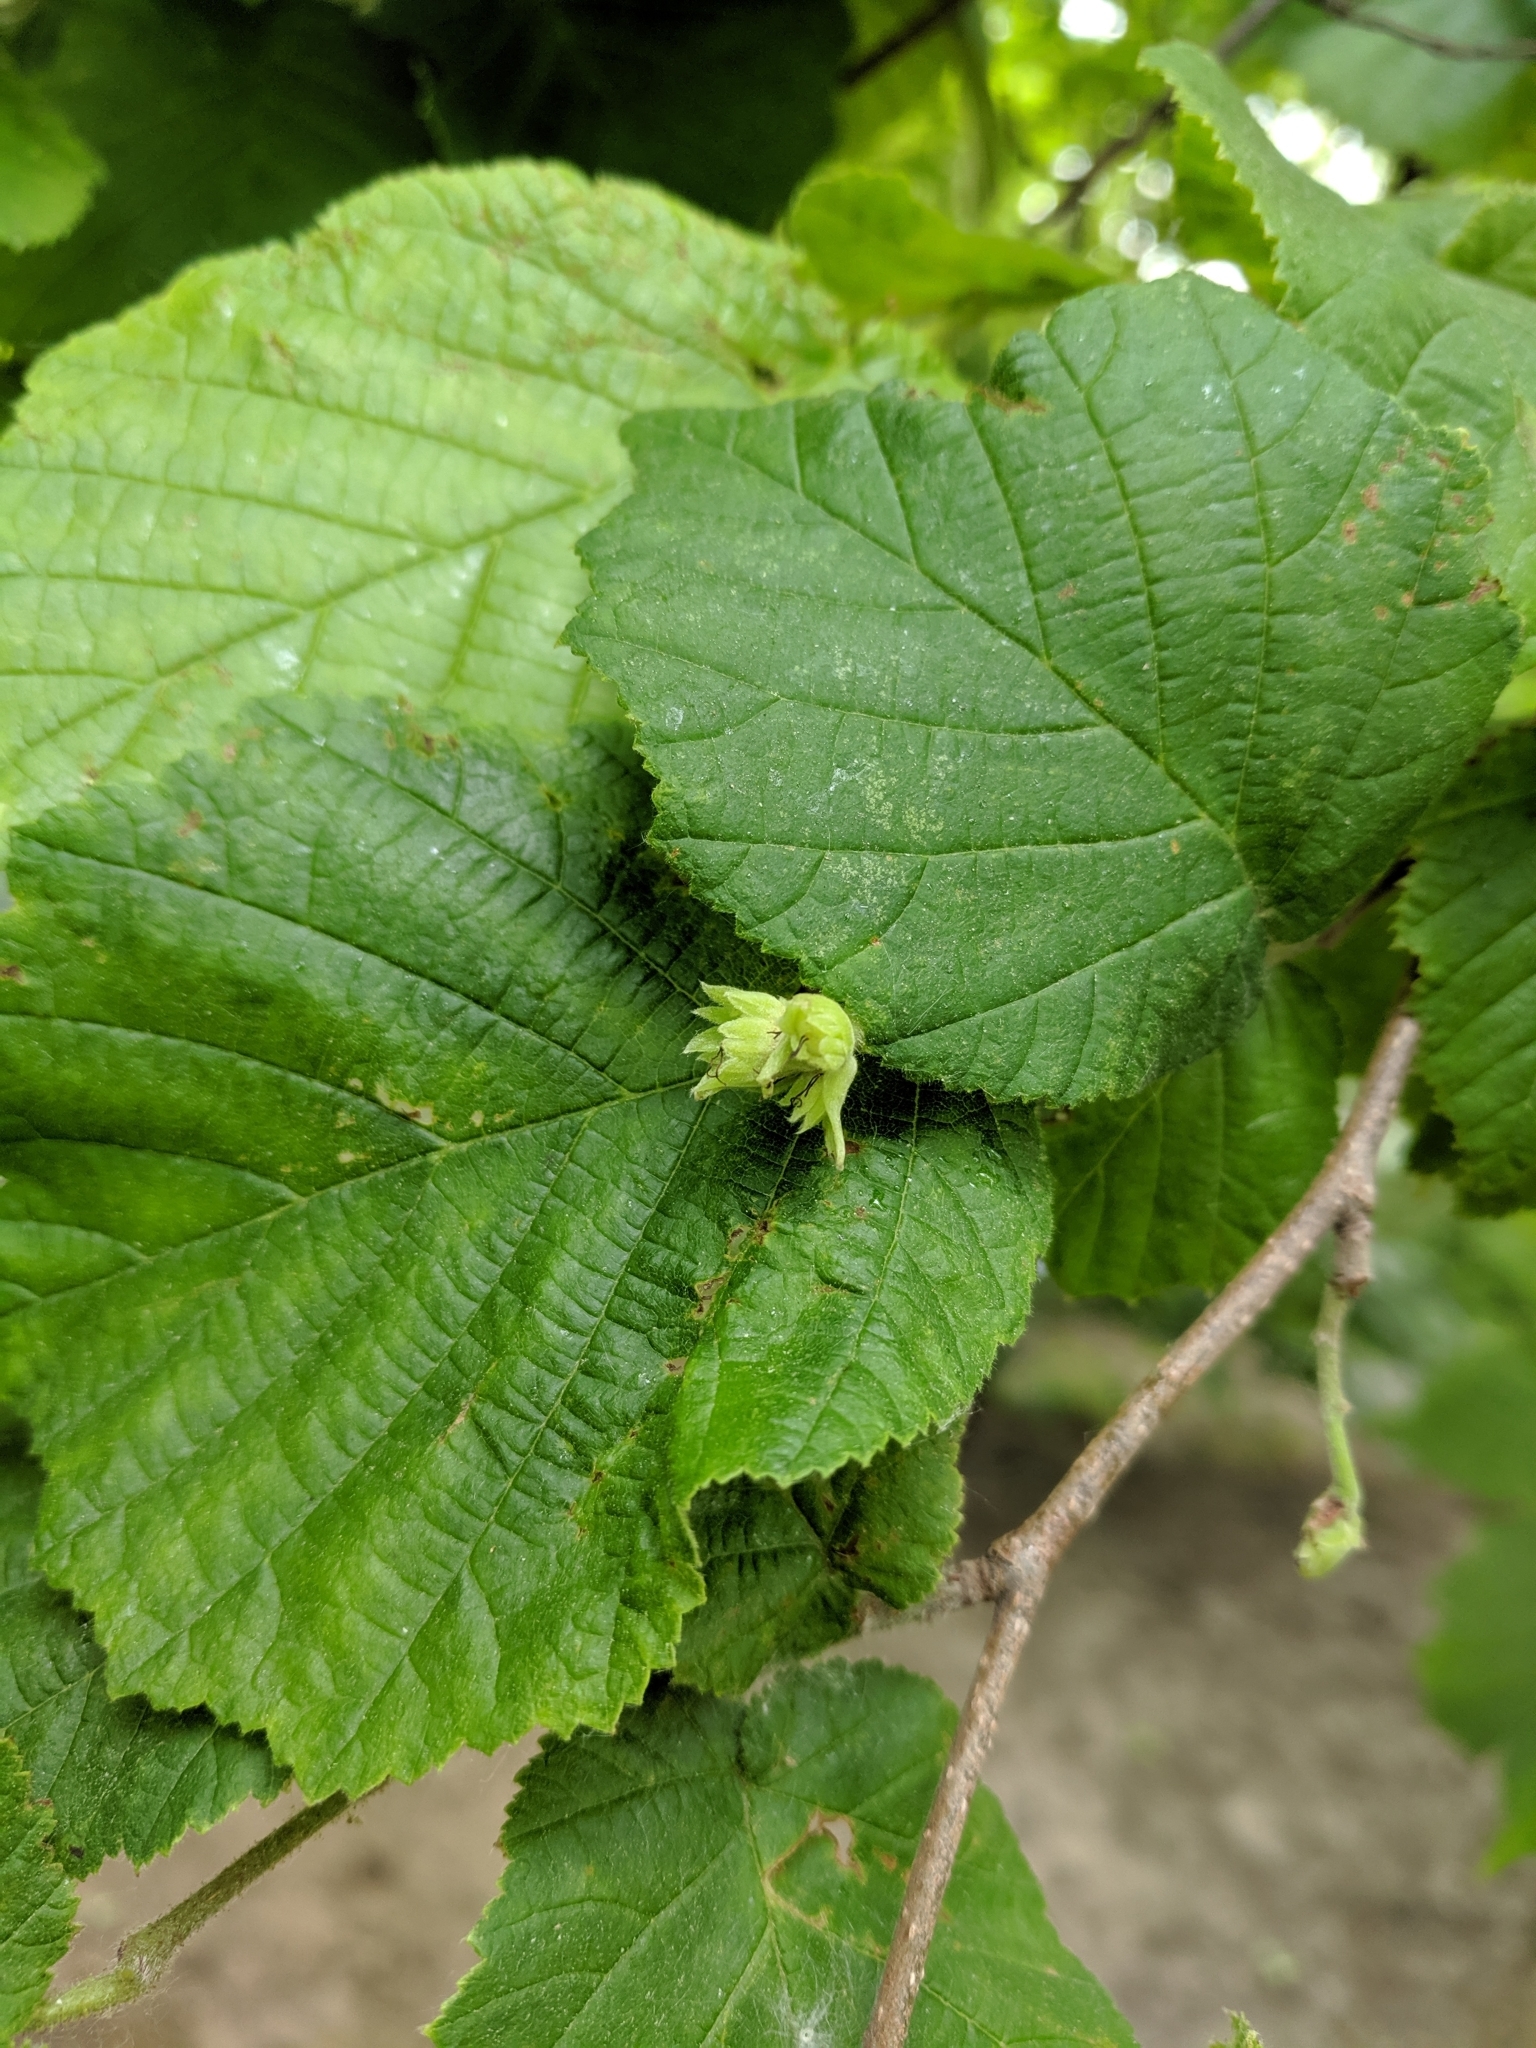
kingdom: Plantae
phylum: Tracheophyta
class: Magnoliopsida
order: Fagales
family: Betulaceae
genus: Corylus
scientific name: Corylus avellana
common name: European hazel
